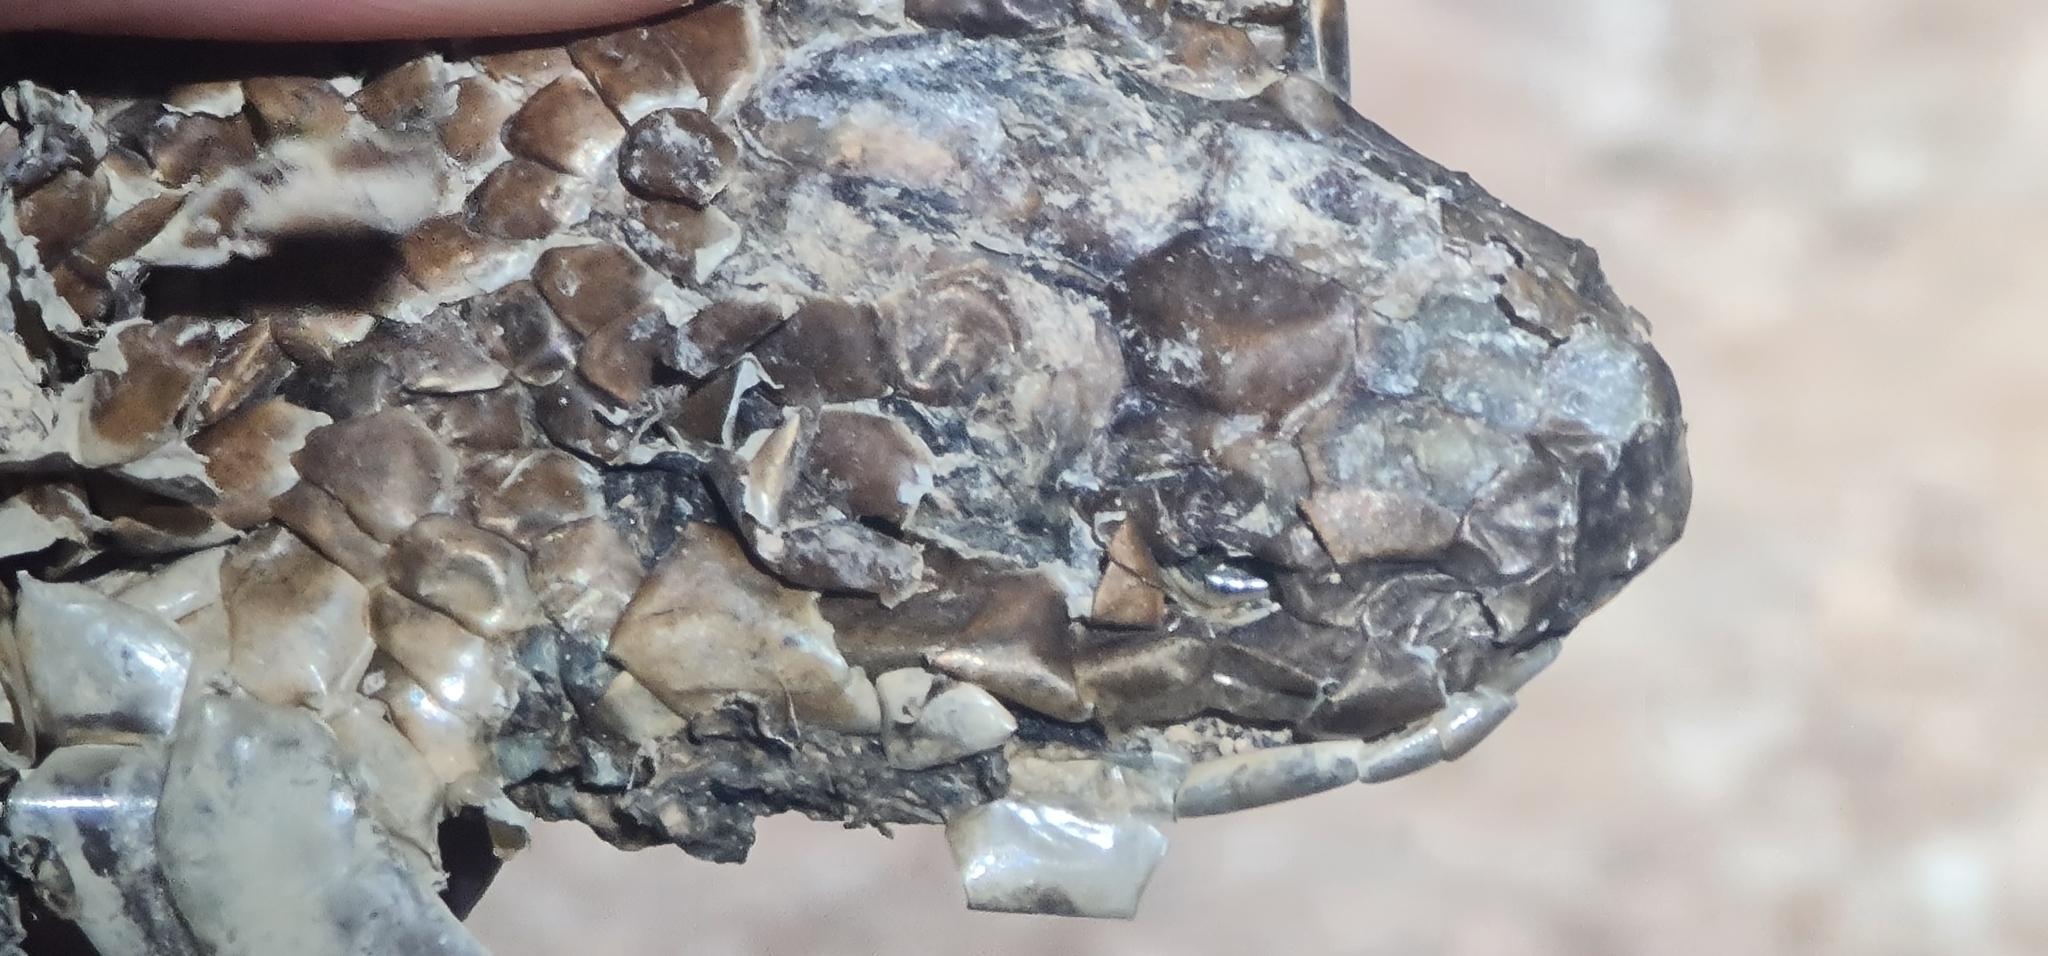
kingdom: Animalia
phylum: Chordata
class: Squamata
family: Elapidae
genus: Pseudechis
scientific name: Pseudechis australis
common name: King brown snake
